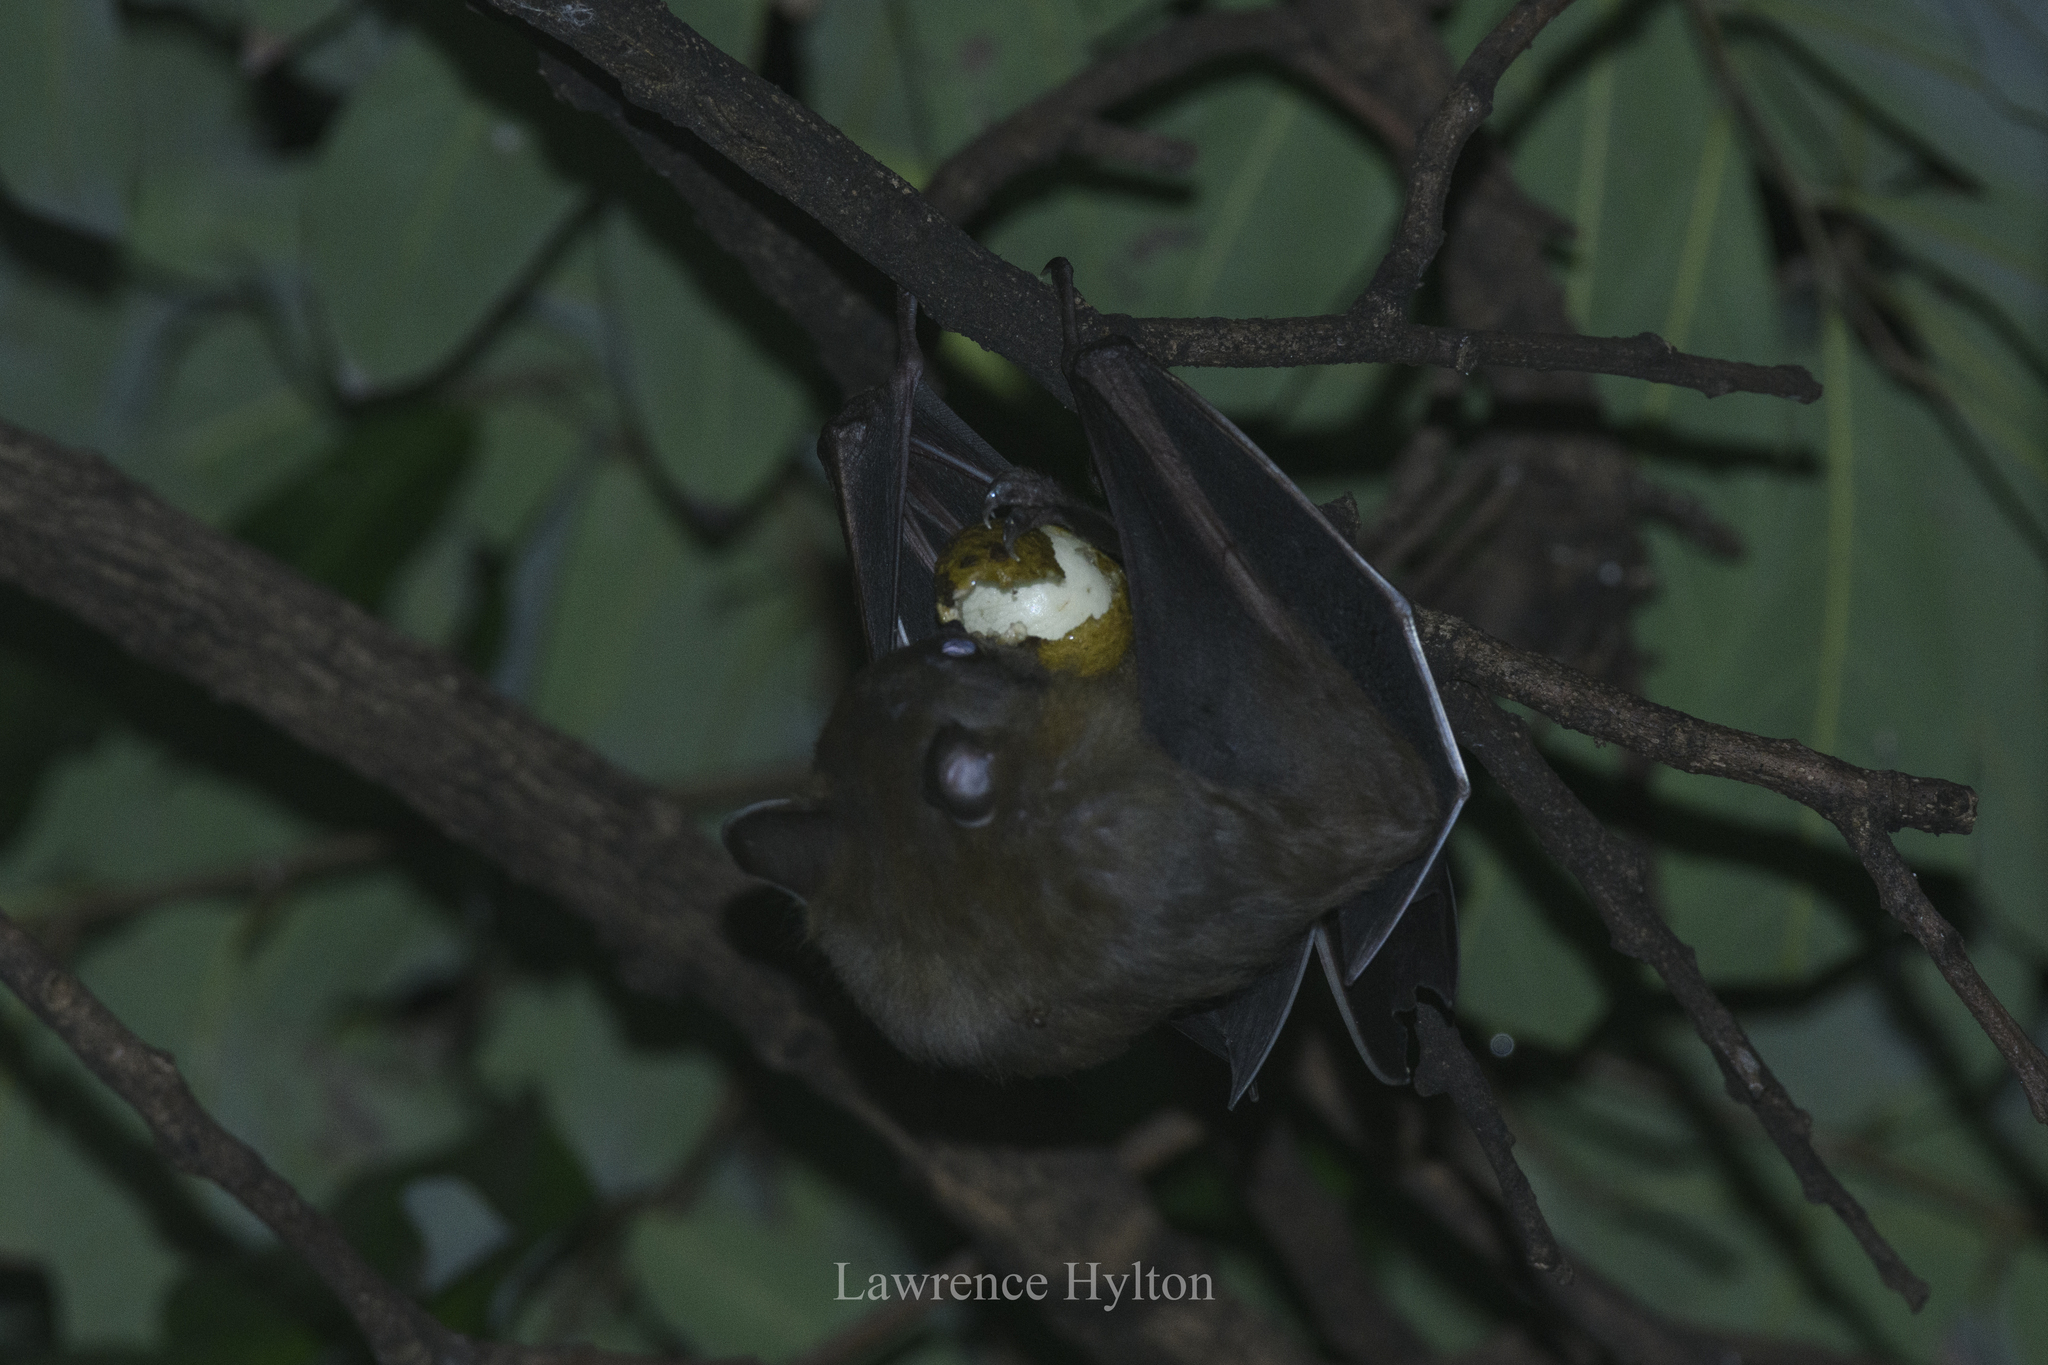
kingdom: Animalia
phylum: Chordata
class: Mammalia
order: Chiroptera
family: Pteropodidae
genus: Cynopterus
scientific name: Cynopterus sphinx
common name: Greater short-nosed fruit bat
